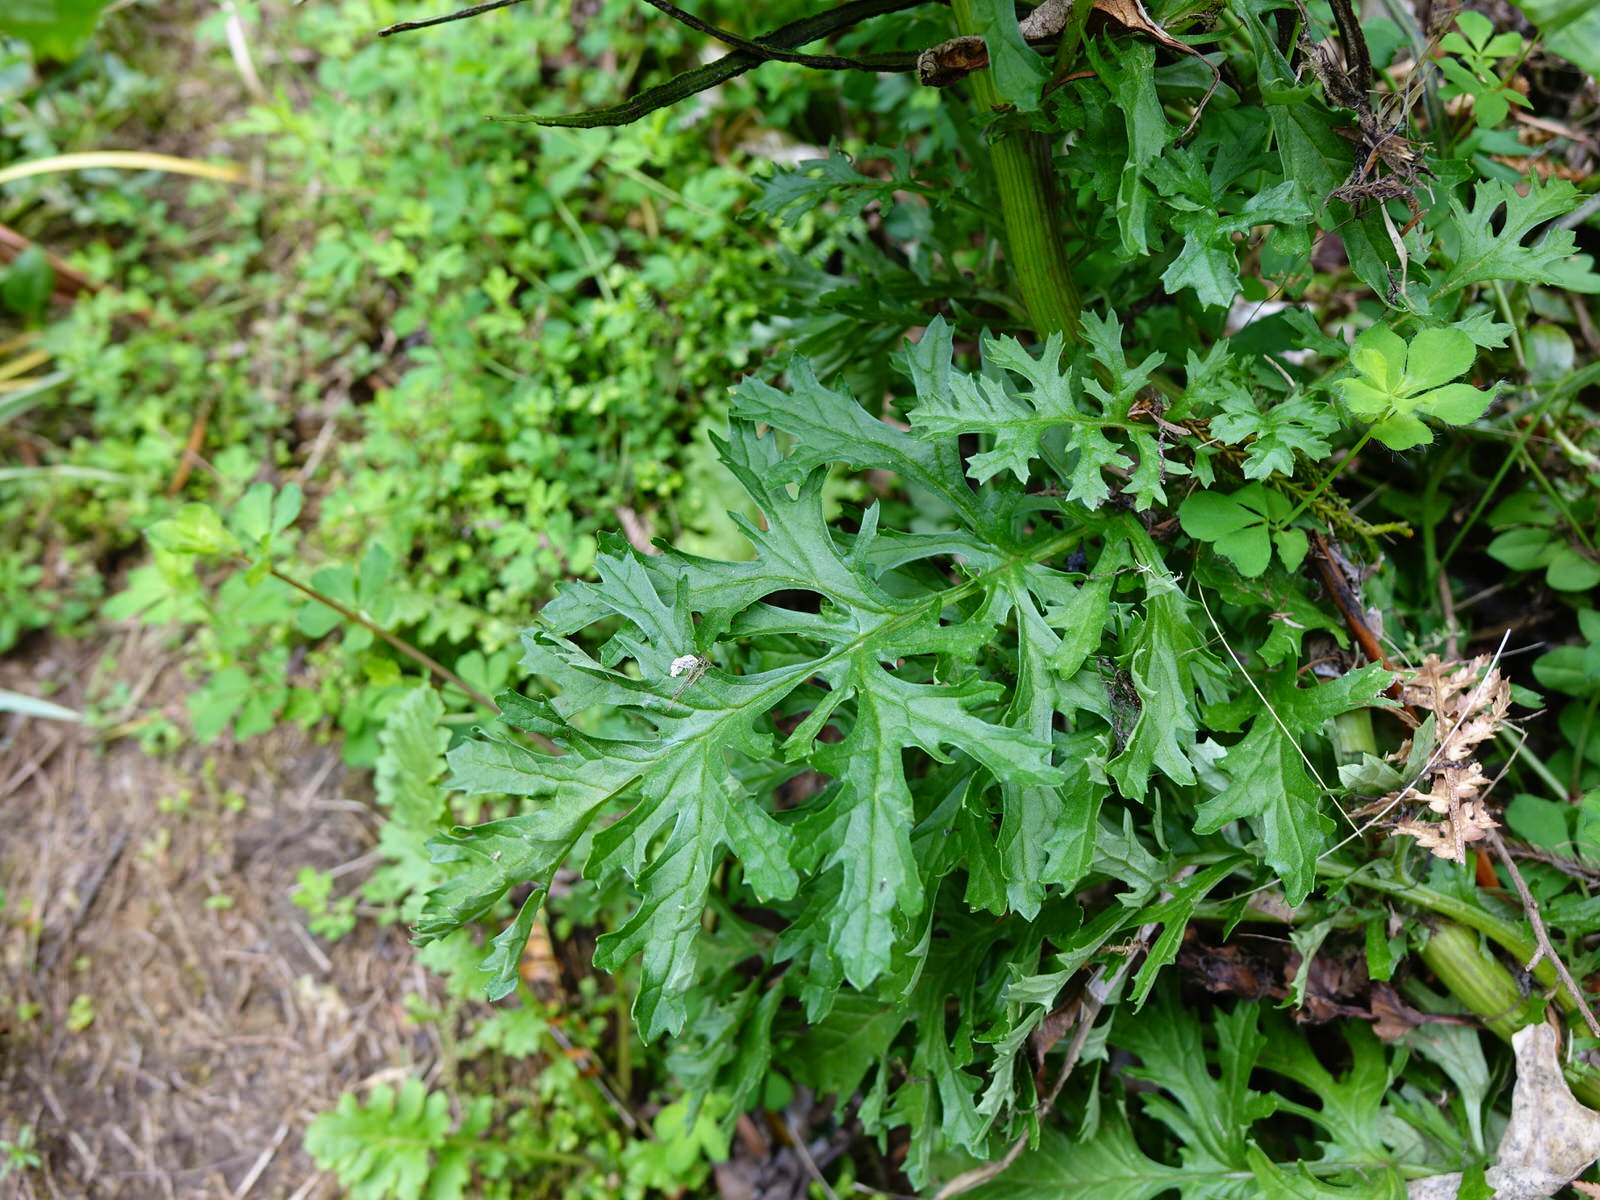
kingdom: Plantae
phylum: Tracheophyta
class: Magnoliopsida
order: Asterales
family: Asteraceae
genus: Jacobaea
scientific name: Jacobaea vulgaris
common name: Stinking willie
